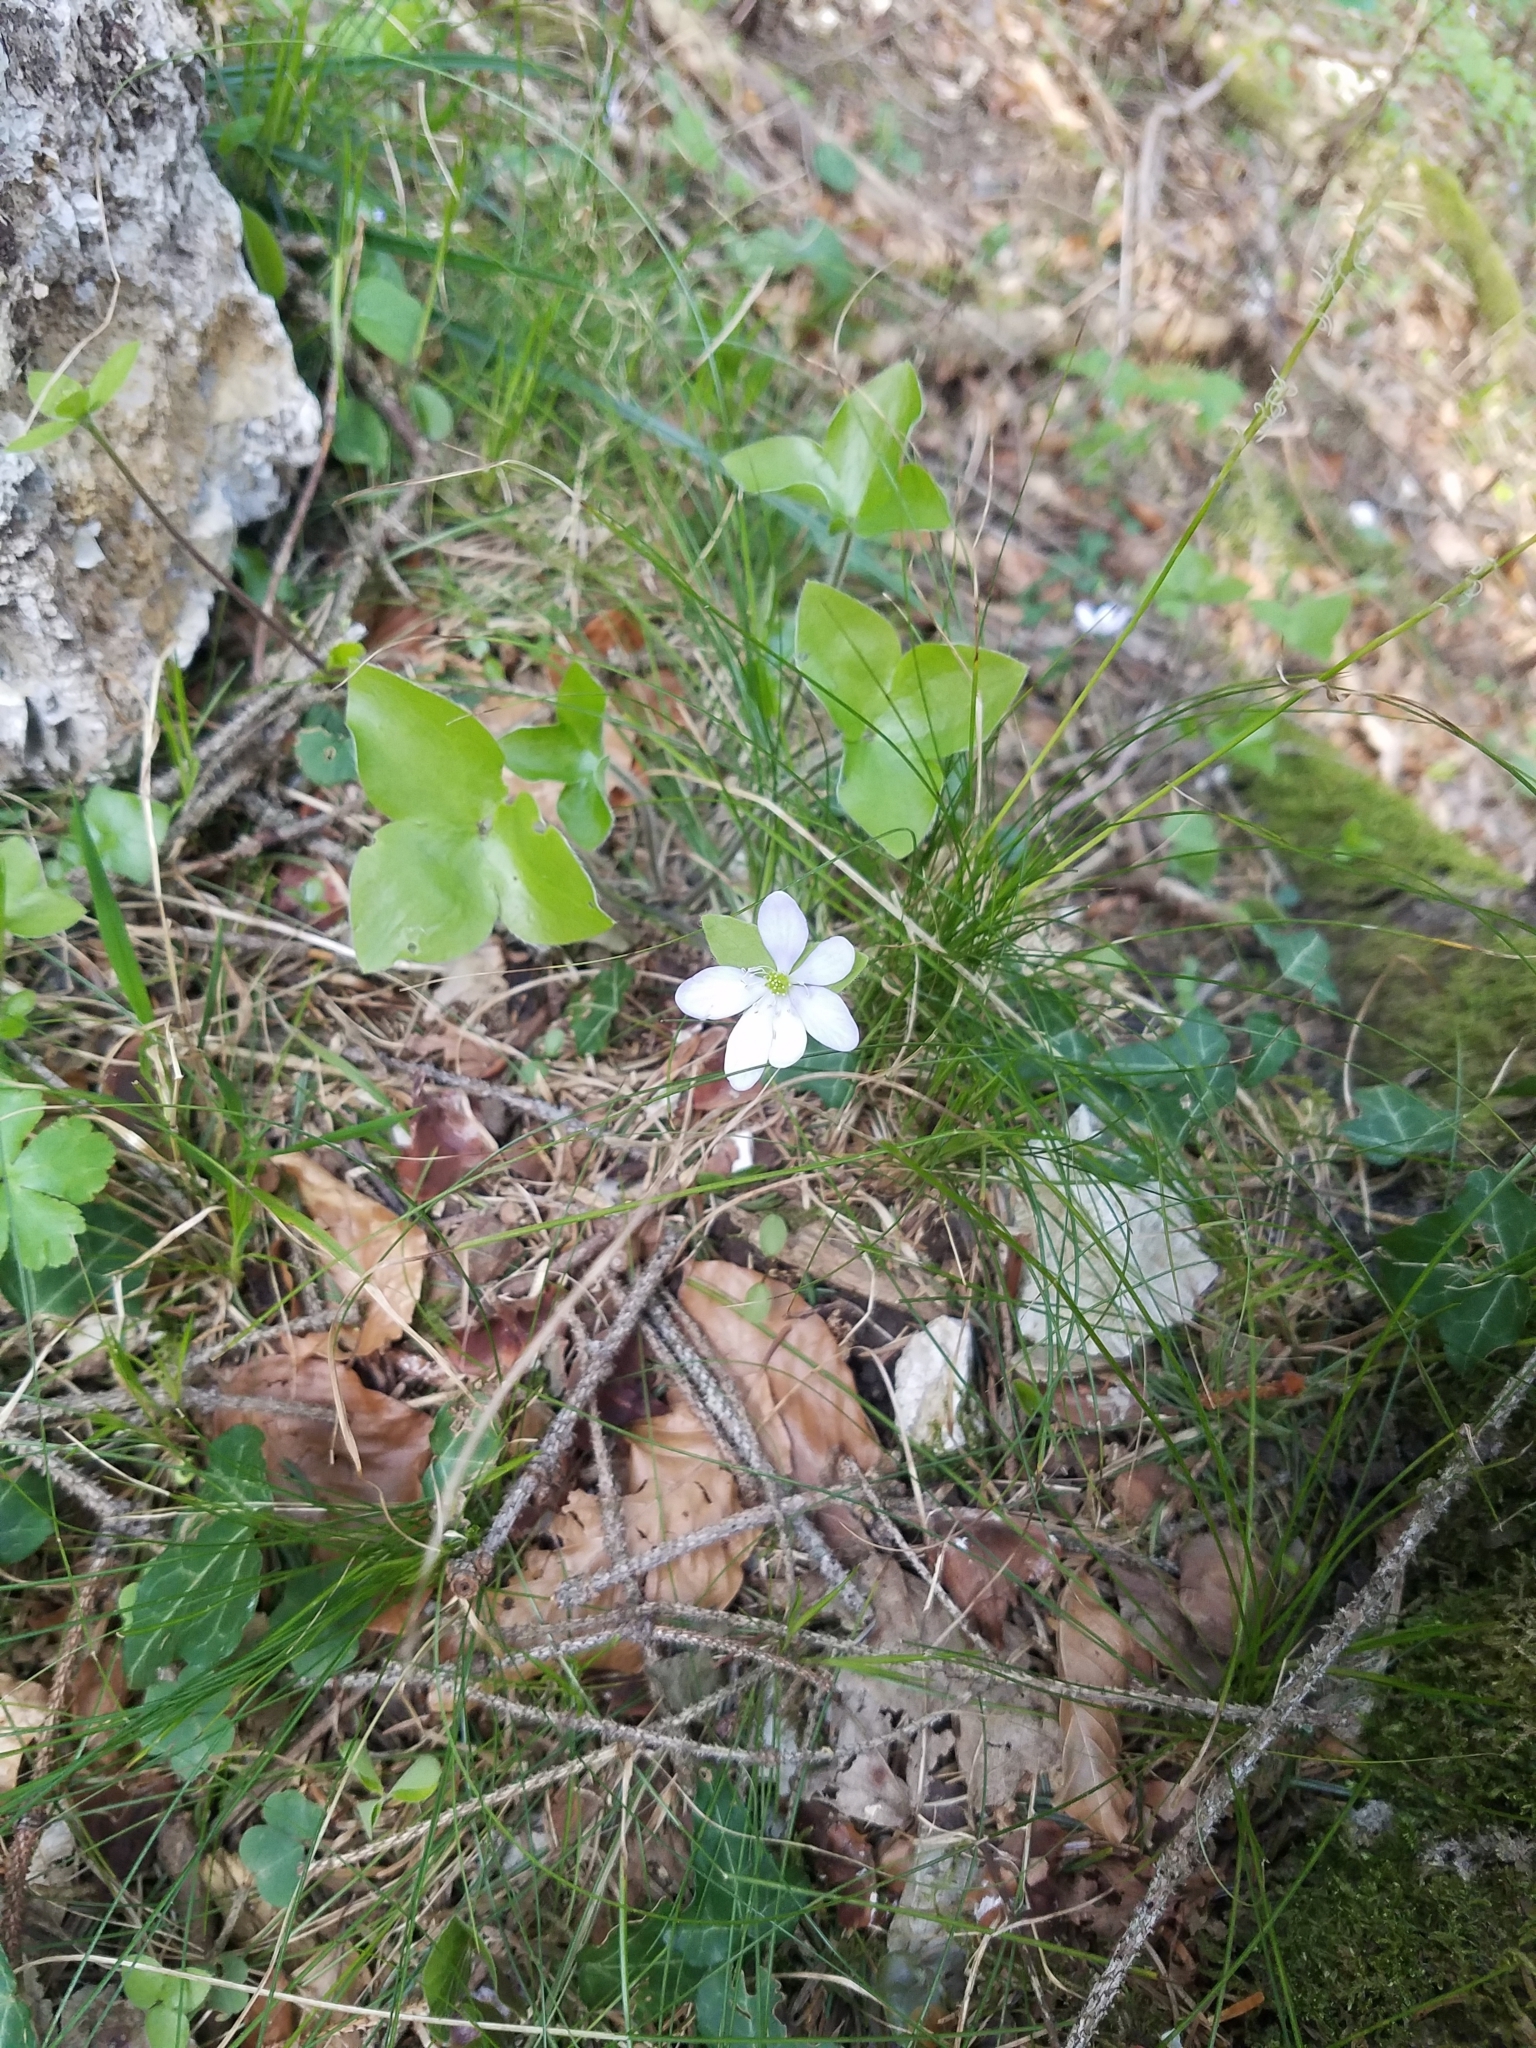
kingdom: Plantae
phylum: Tracheophyta
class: Magnoliopsida
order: Ranunculales
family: Ranunculaceae
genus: Hepatica
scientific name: Hepatica nobilis
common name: Liverleaf
